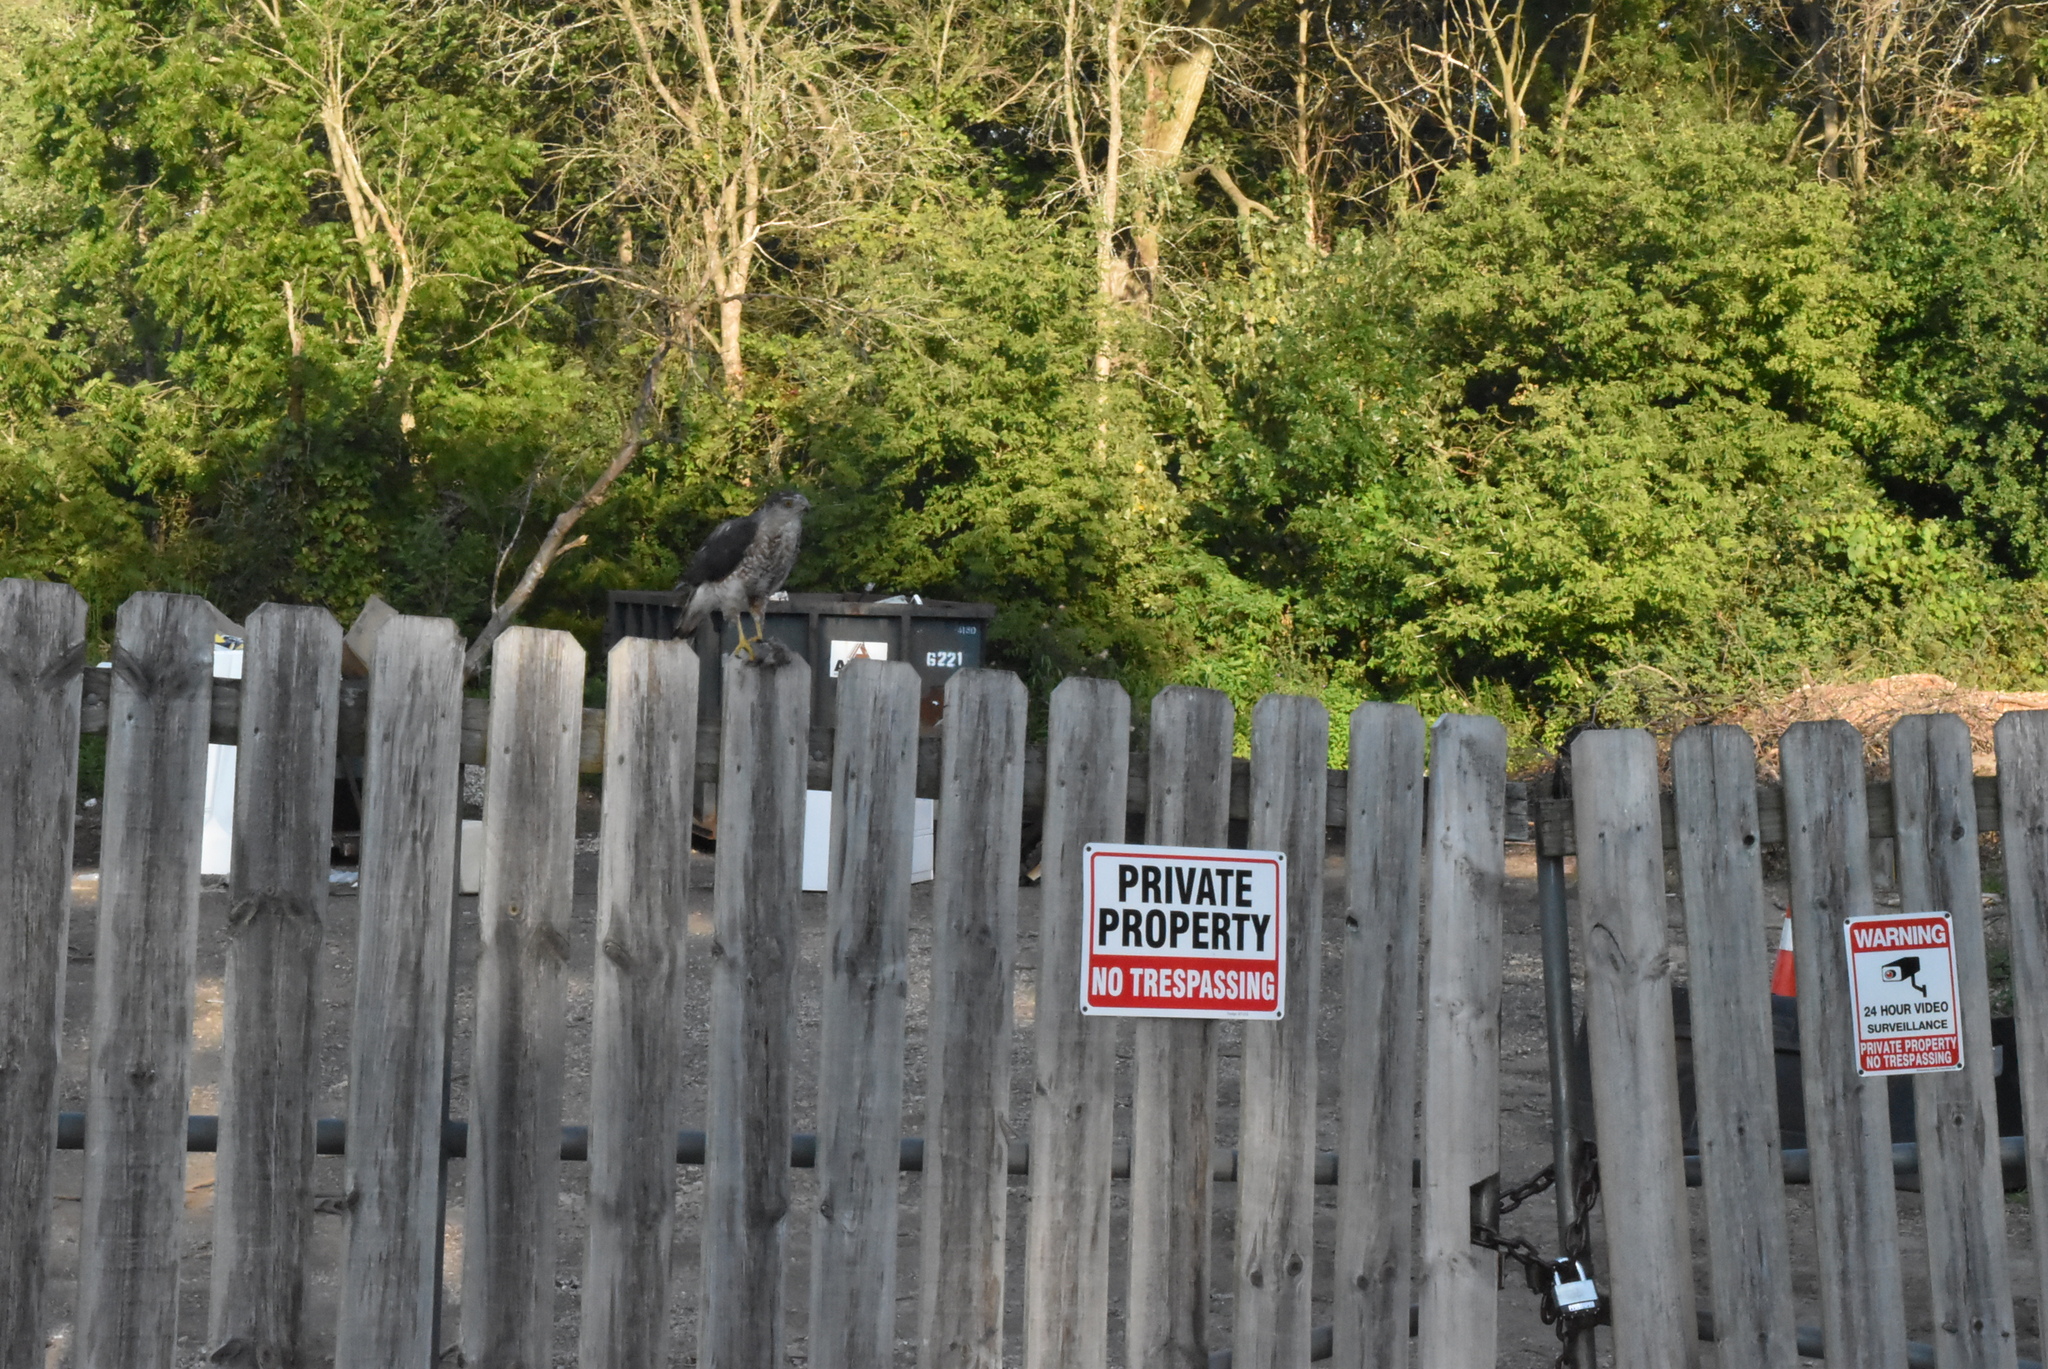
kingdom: Animalia
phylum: Chordata
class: Aves
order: Accipitriformes
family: Accipitridae
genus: Accipiter
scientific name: Accipiter cooperii
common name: Cooper's hawk
